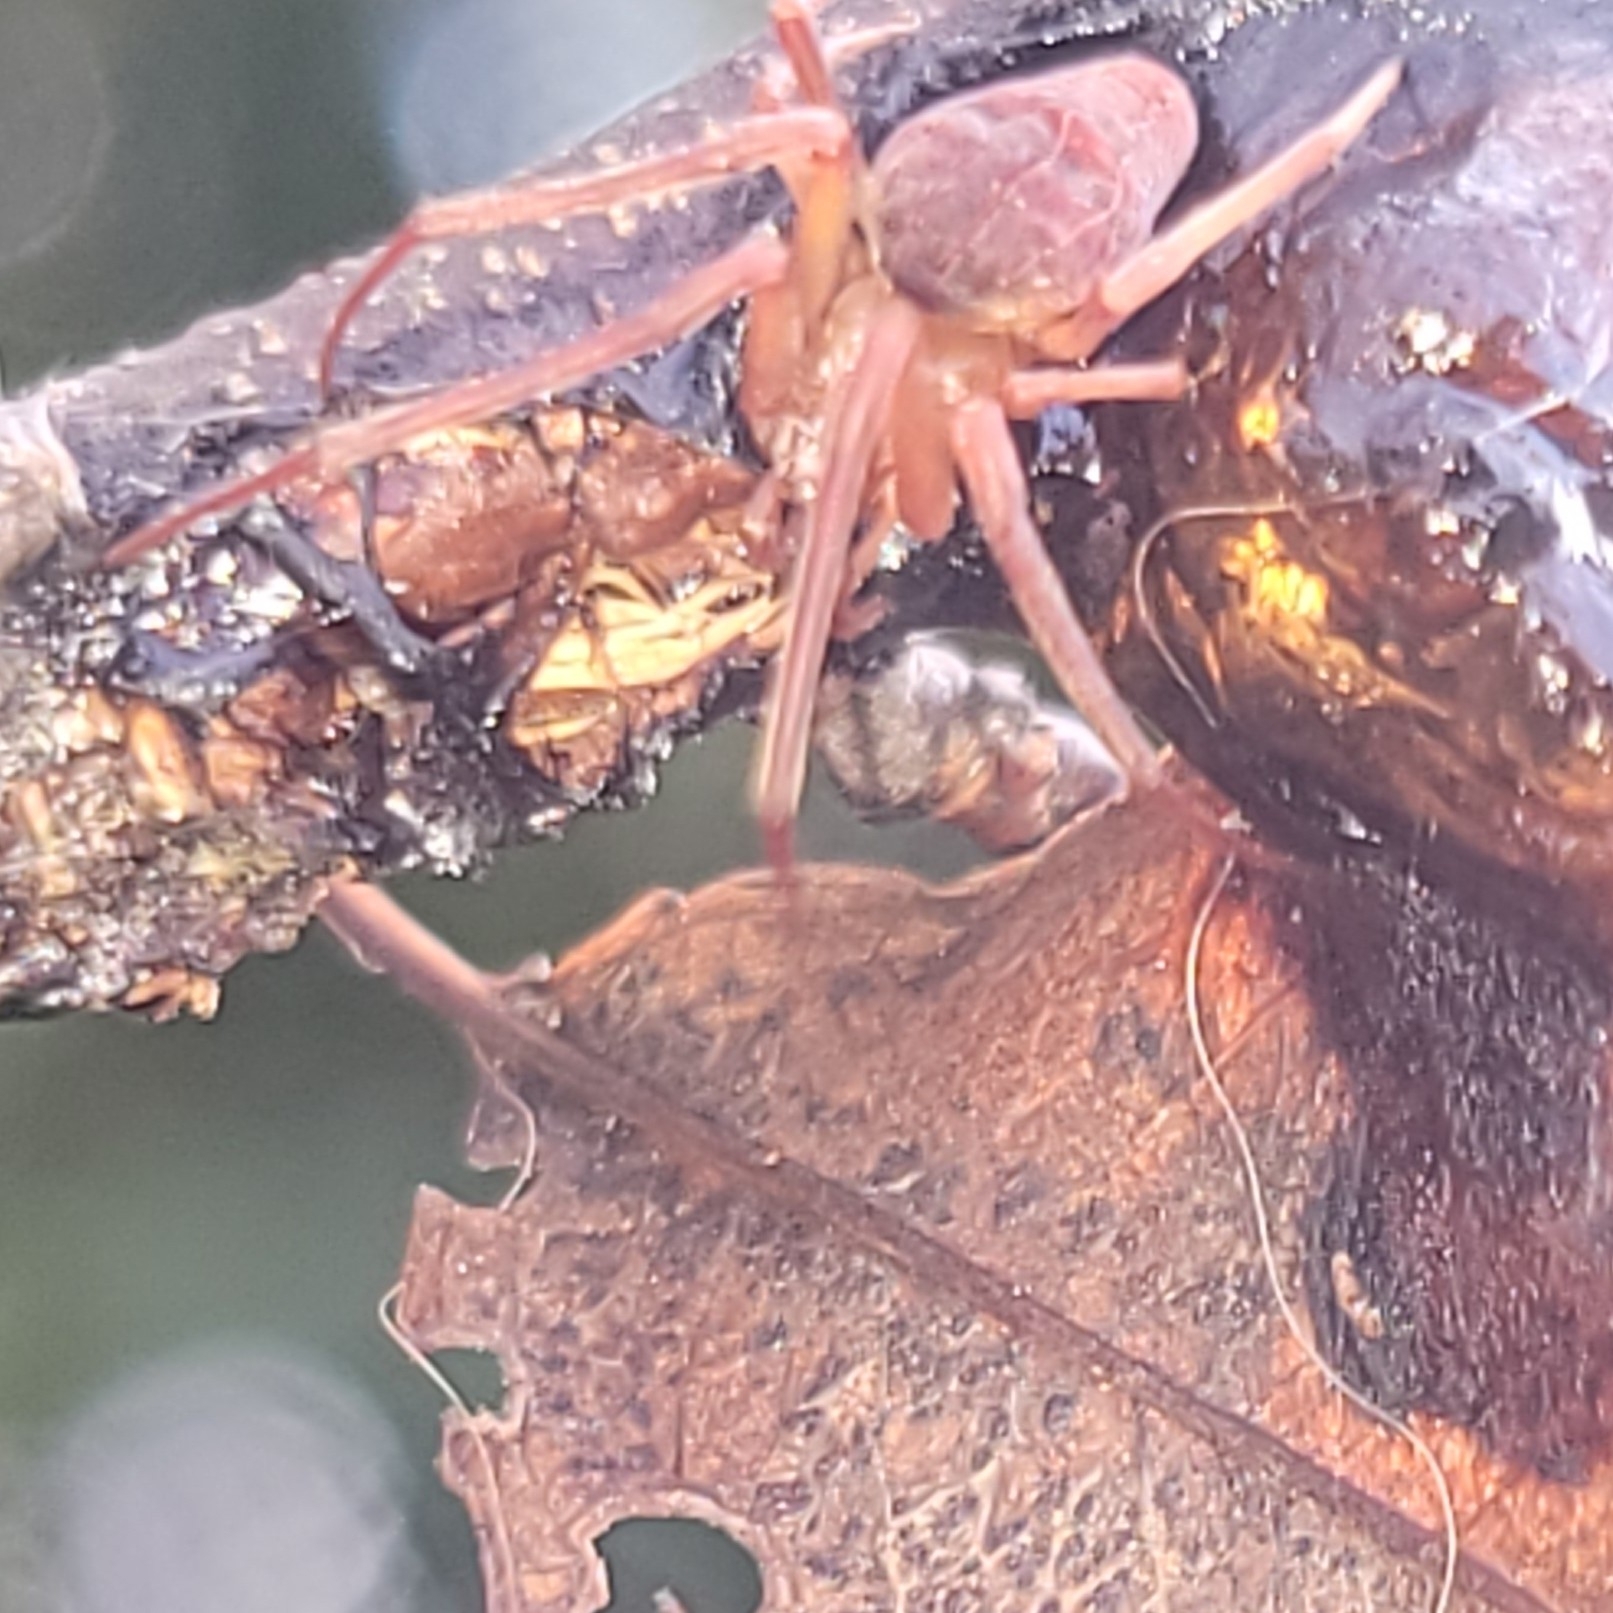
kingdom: Animalia
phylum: Arthropoda
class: Arachnida
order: Araneae
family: Araneidae
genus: Acacesia
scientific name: Acacesia hamata
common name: Orb weavers
